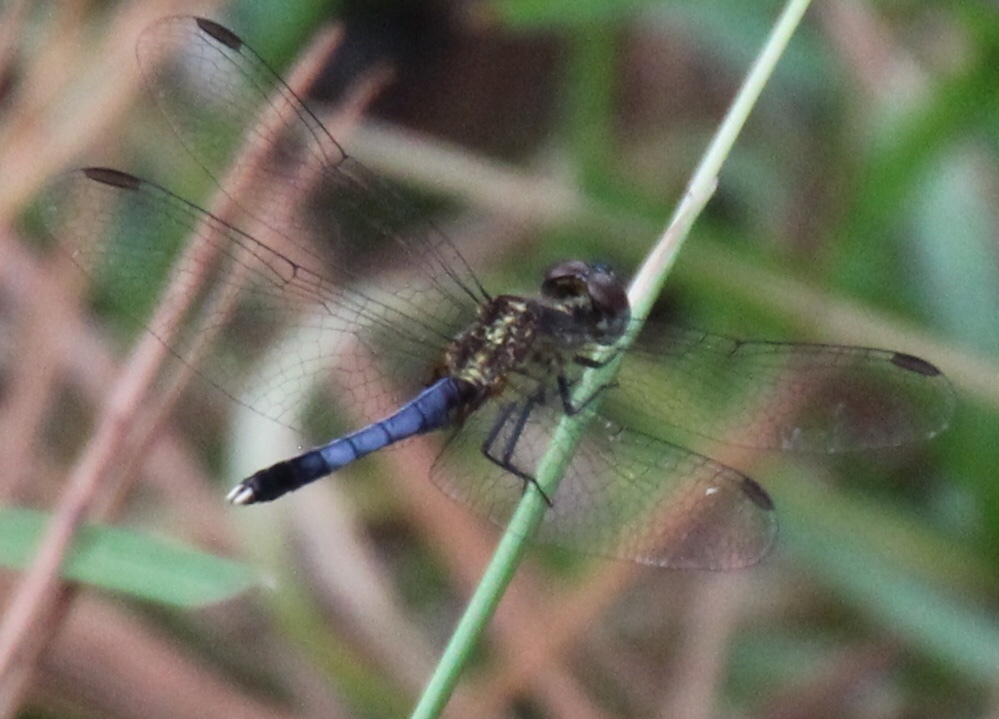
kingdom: Animalia
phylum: Arthropoda
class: Insecta
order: Odonata
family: Libellulidae
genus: Erythrodiplax
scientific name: Erythrodiplax minuscula
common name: Little blue dragonlet
